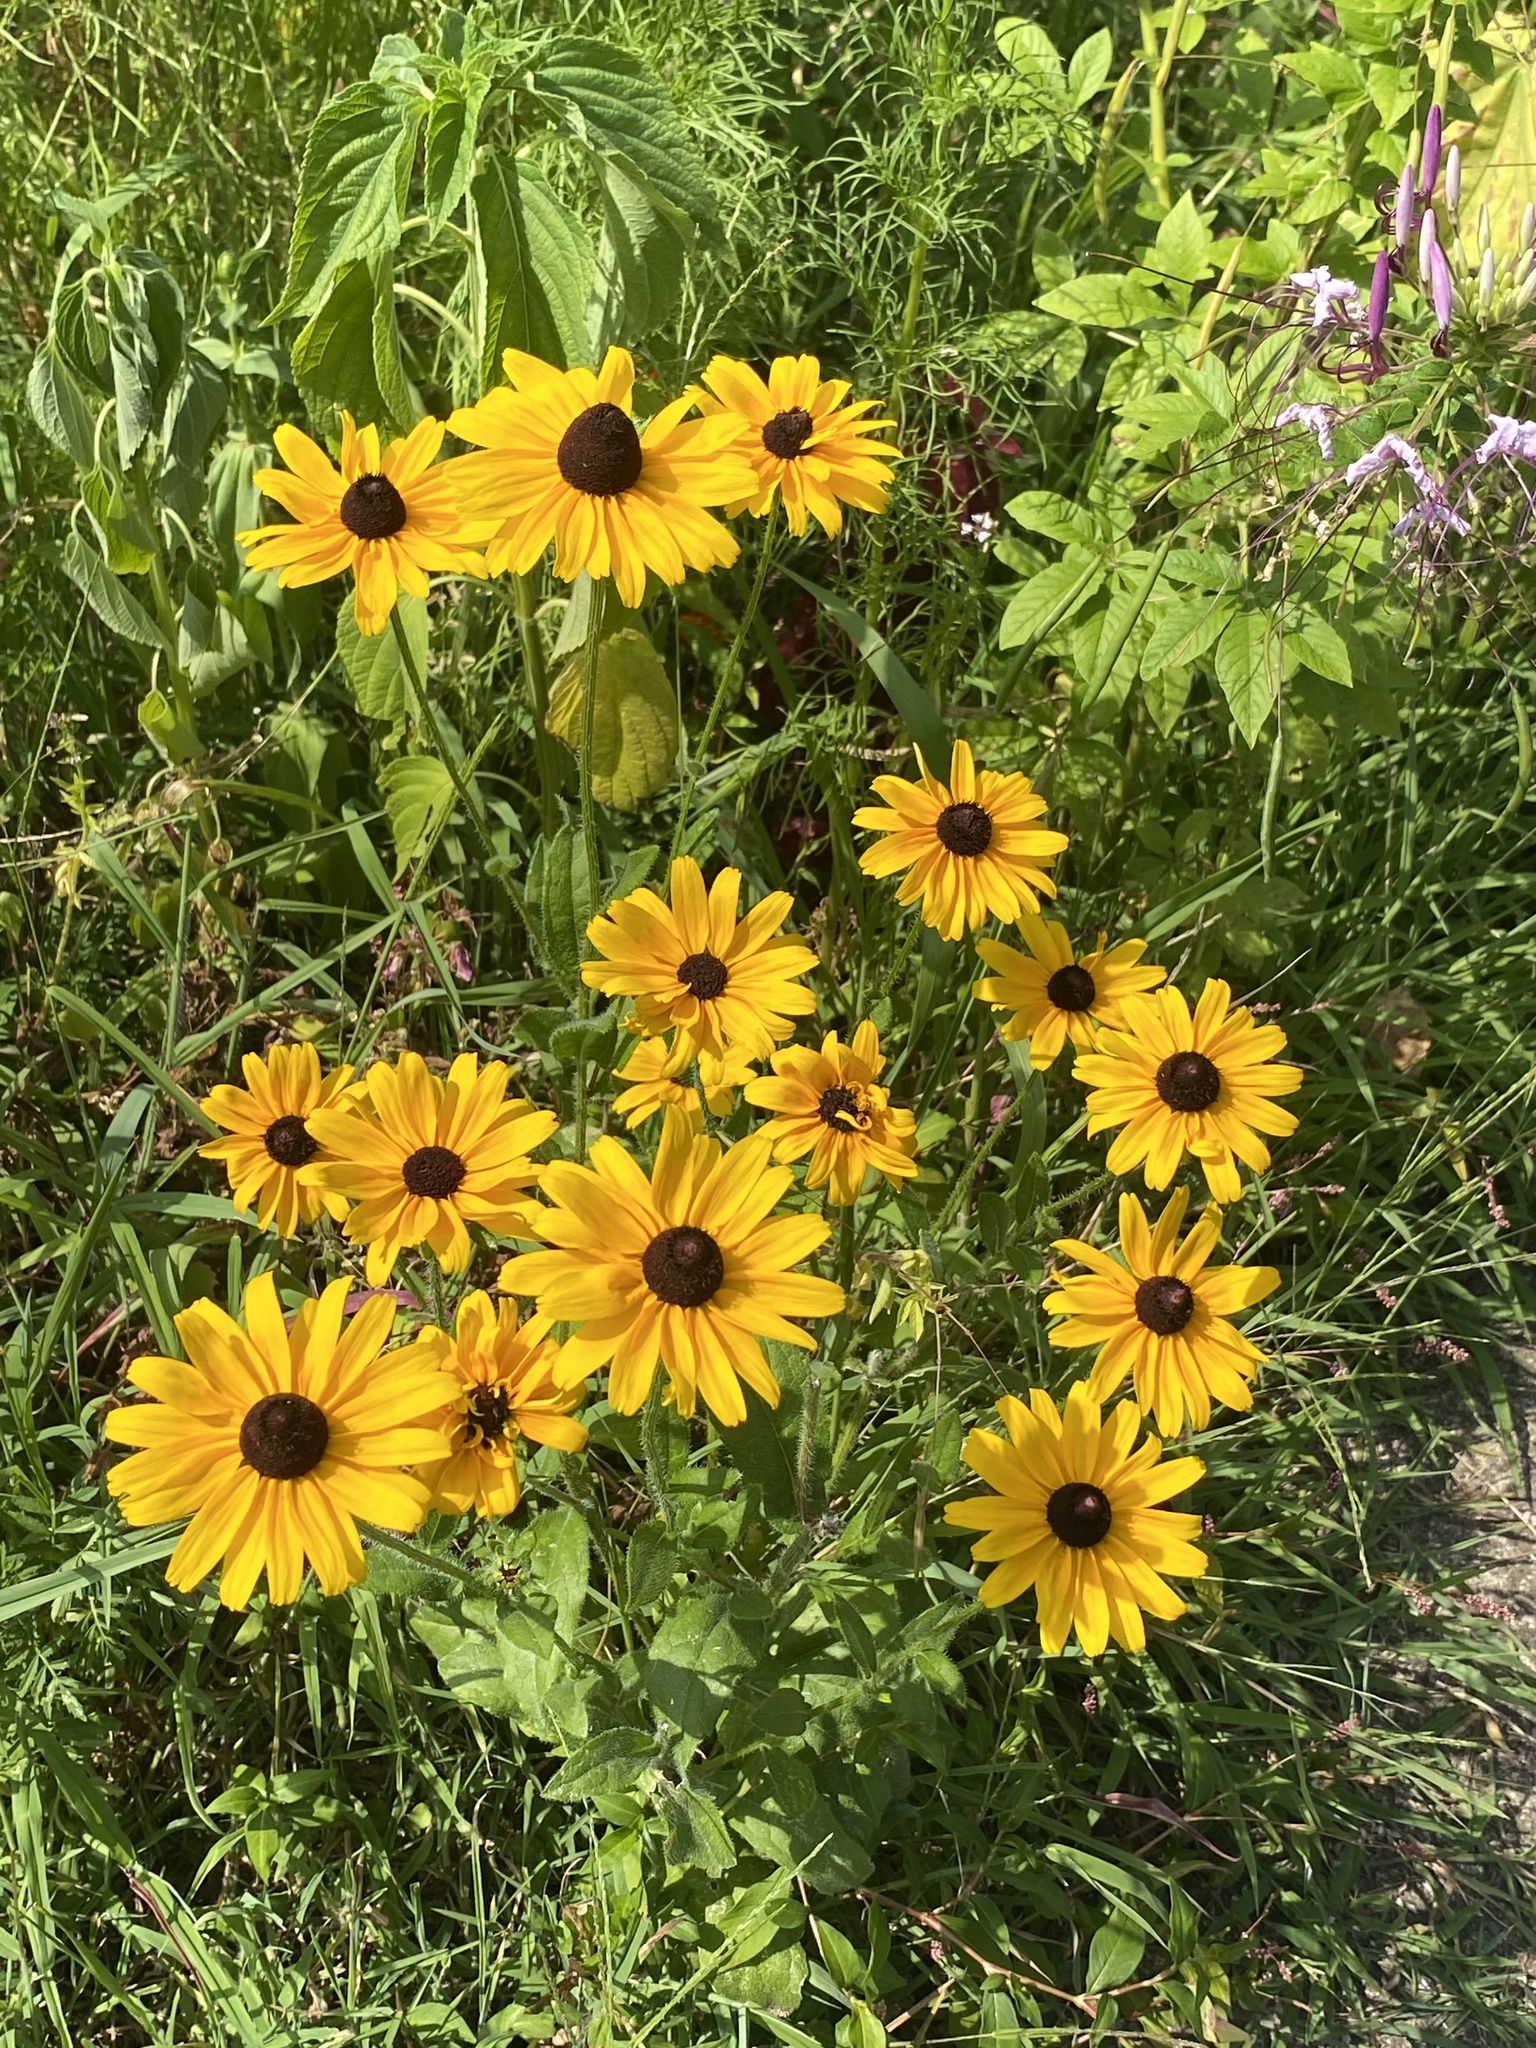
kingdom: Plantae
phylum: Tracheophyta
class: Magnoliopsida
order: Asterales
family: Asteraceae
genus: Rudbeckia
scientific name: Rudbeckia hirta
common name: Black-eyed-susan
